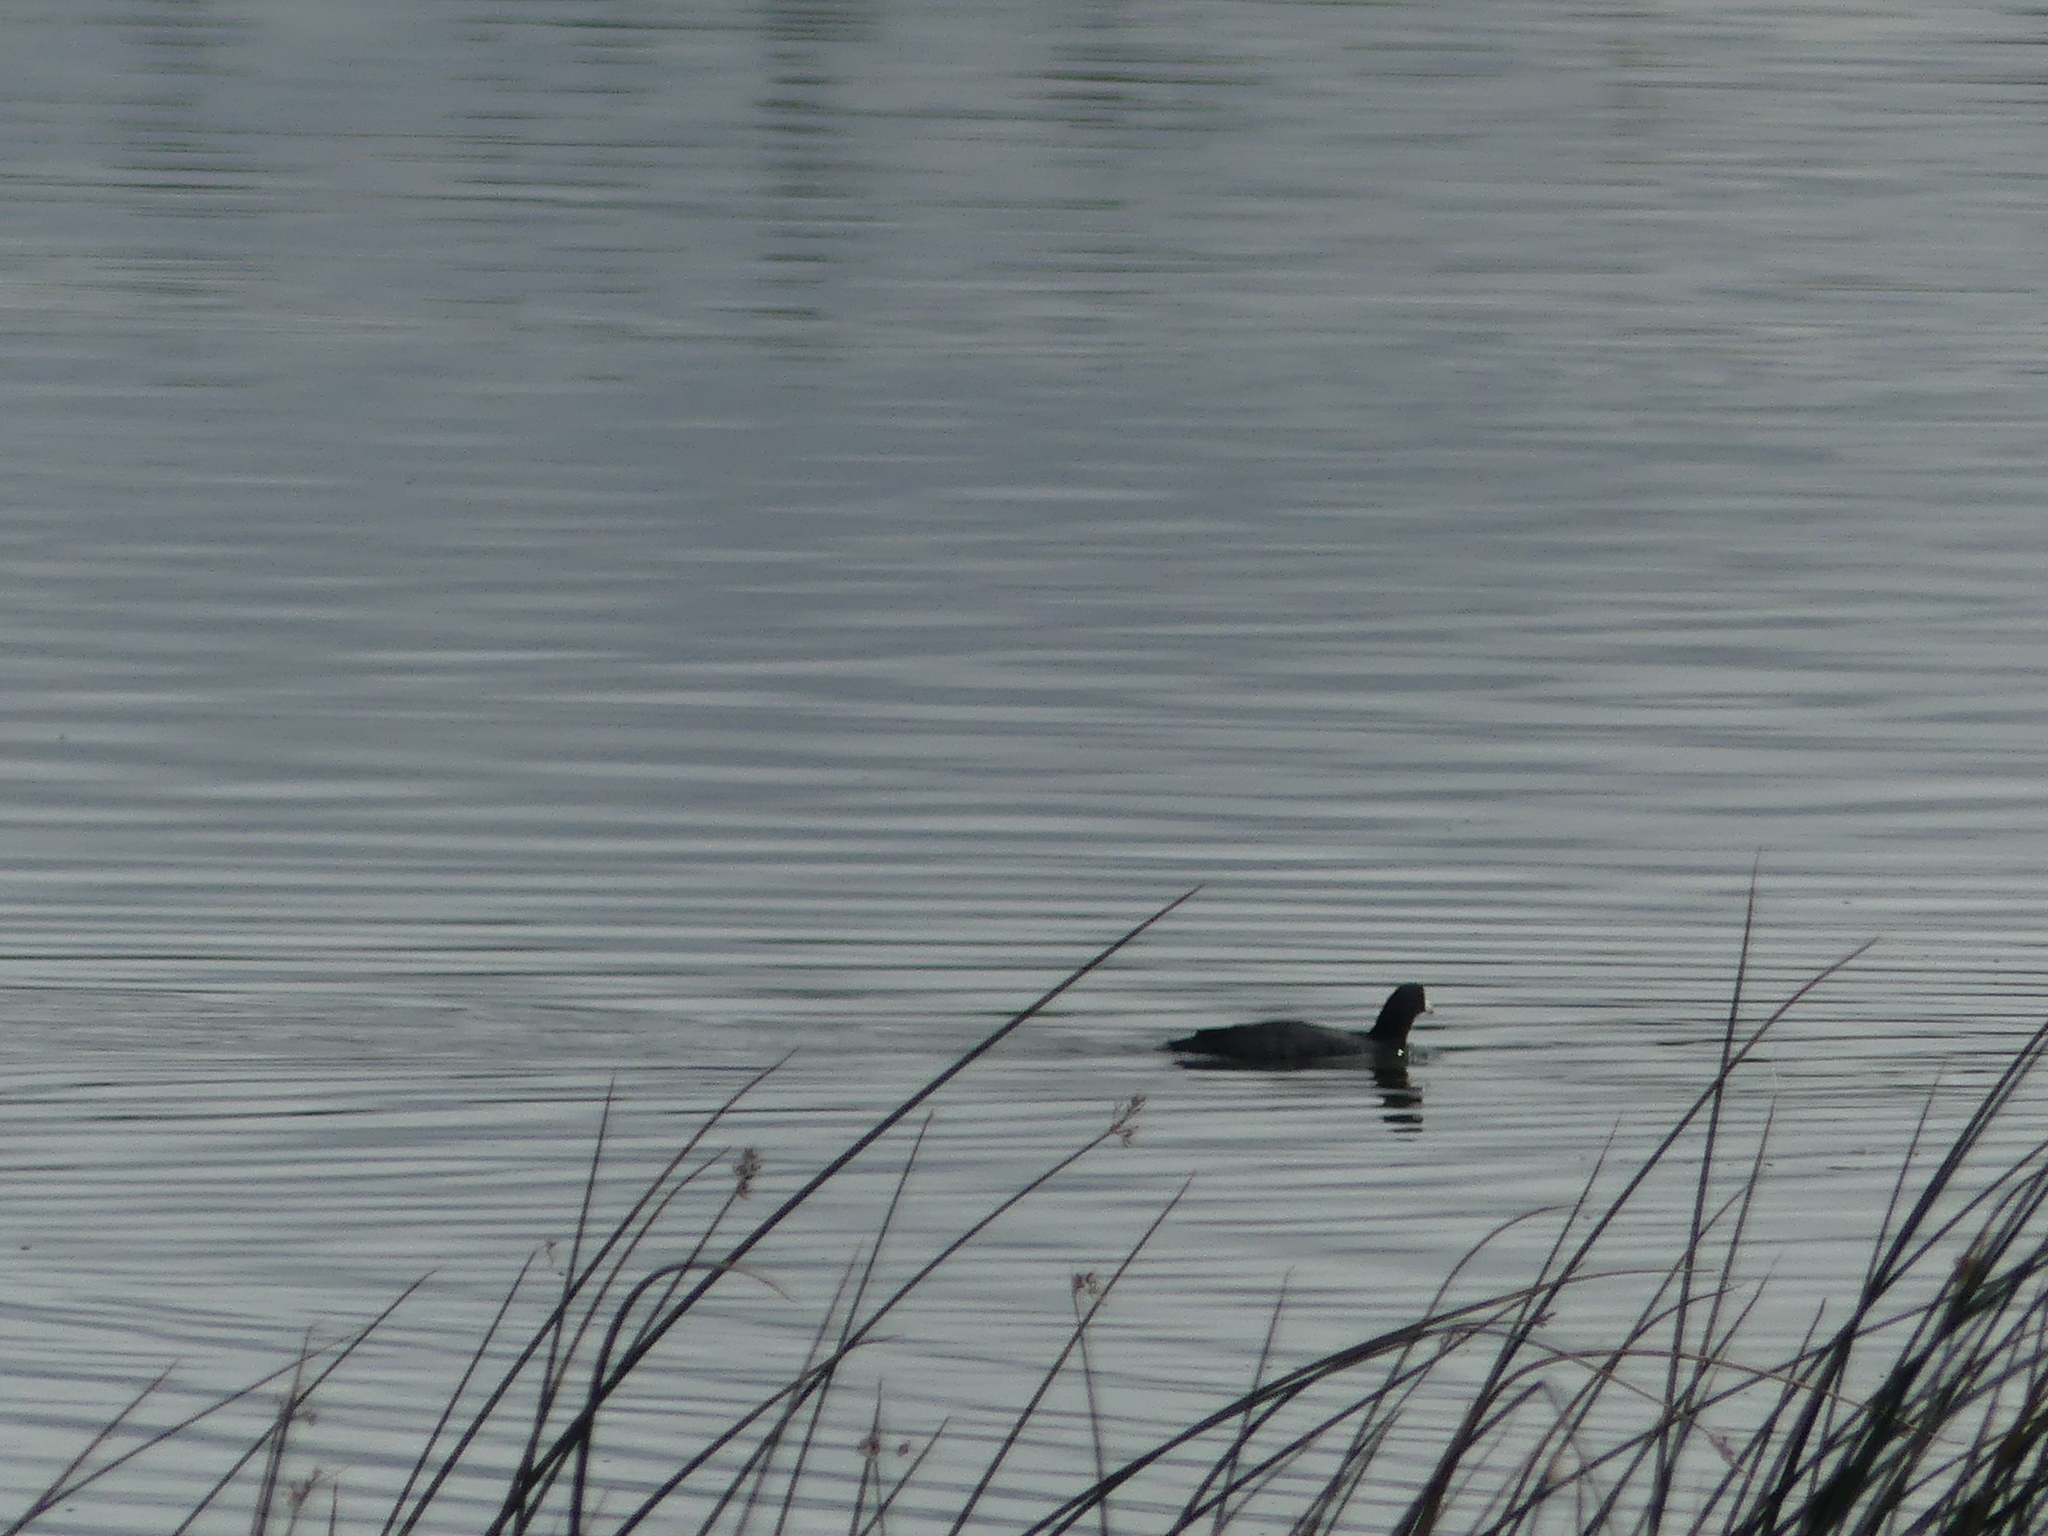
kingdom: Animalia
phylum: Chordata
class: Aves
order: Gruiformes
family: Rallidae
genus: Fulica
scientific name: Fulica americana
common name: American coot
